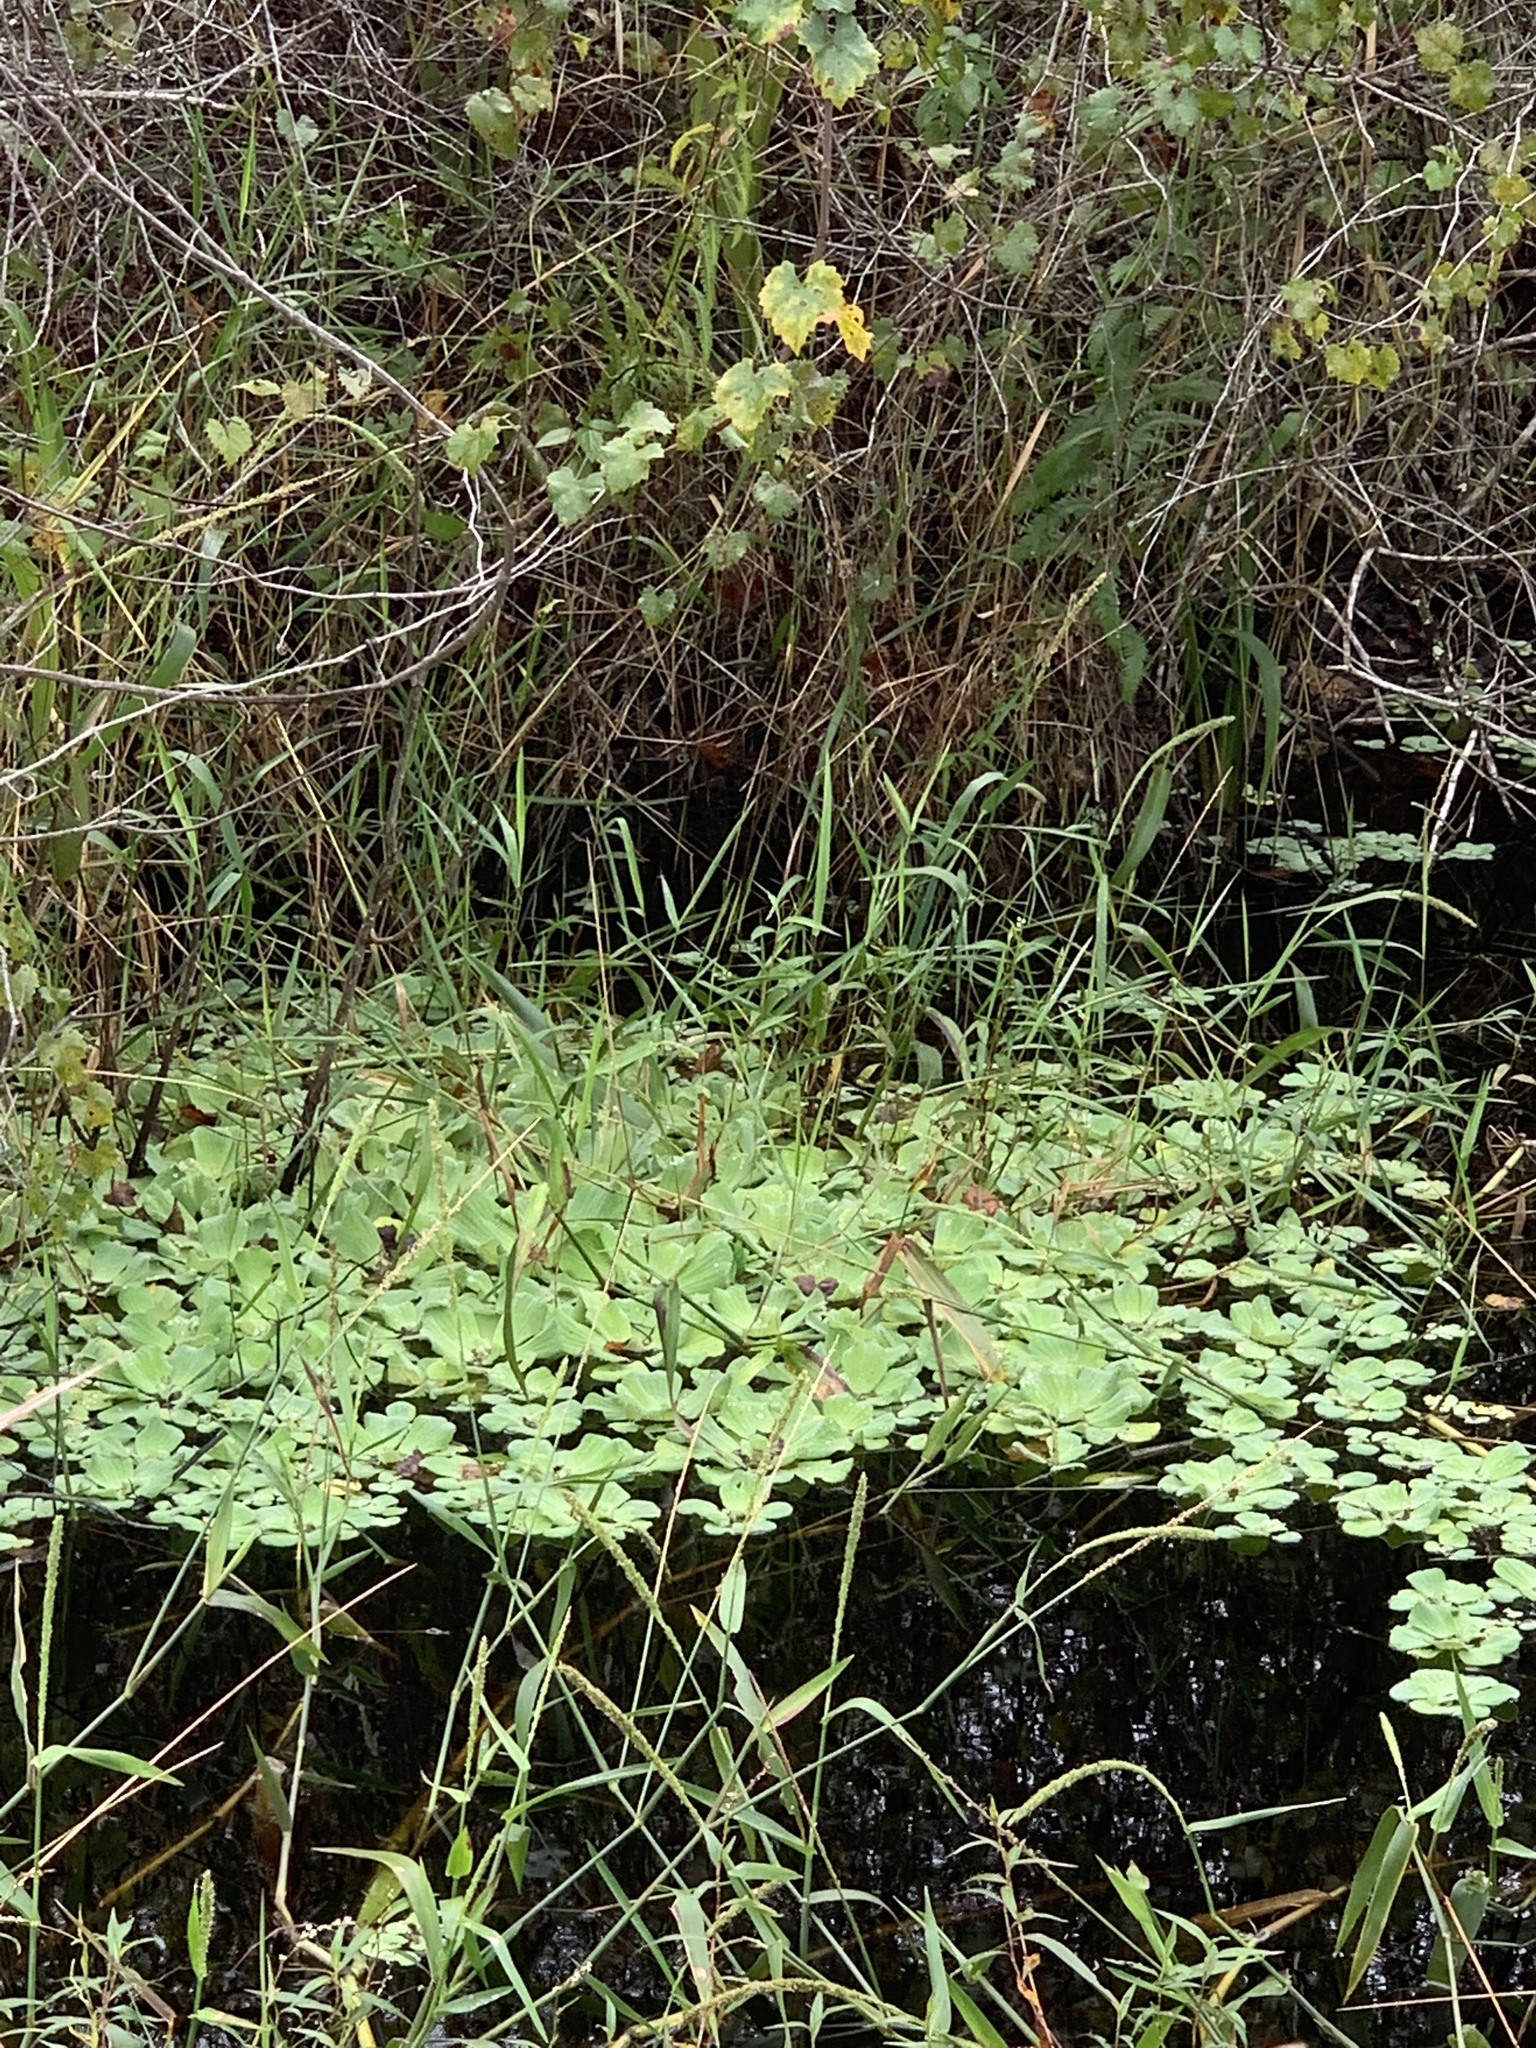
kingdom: Plantae
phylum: Tracheophyta
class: Liliopsida
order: Alismatales
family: Araceae
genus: Pistia
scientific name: Pistia stratiotes
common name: Water lettuce
